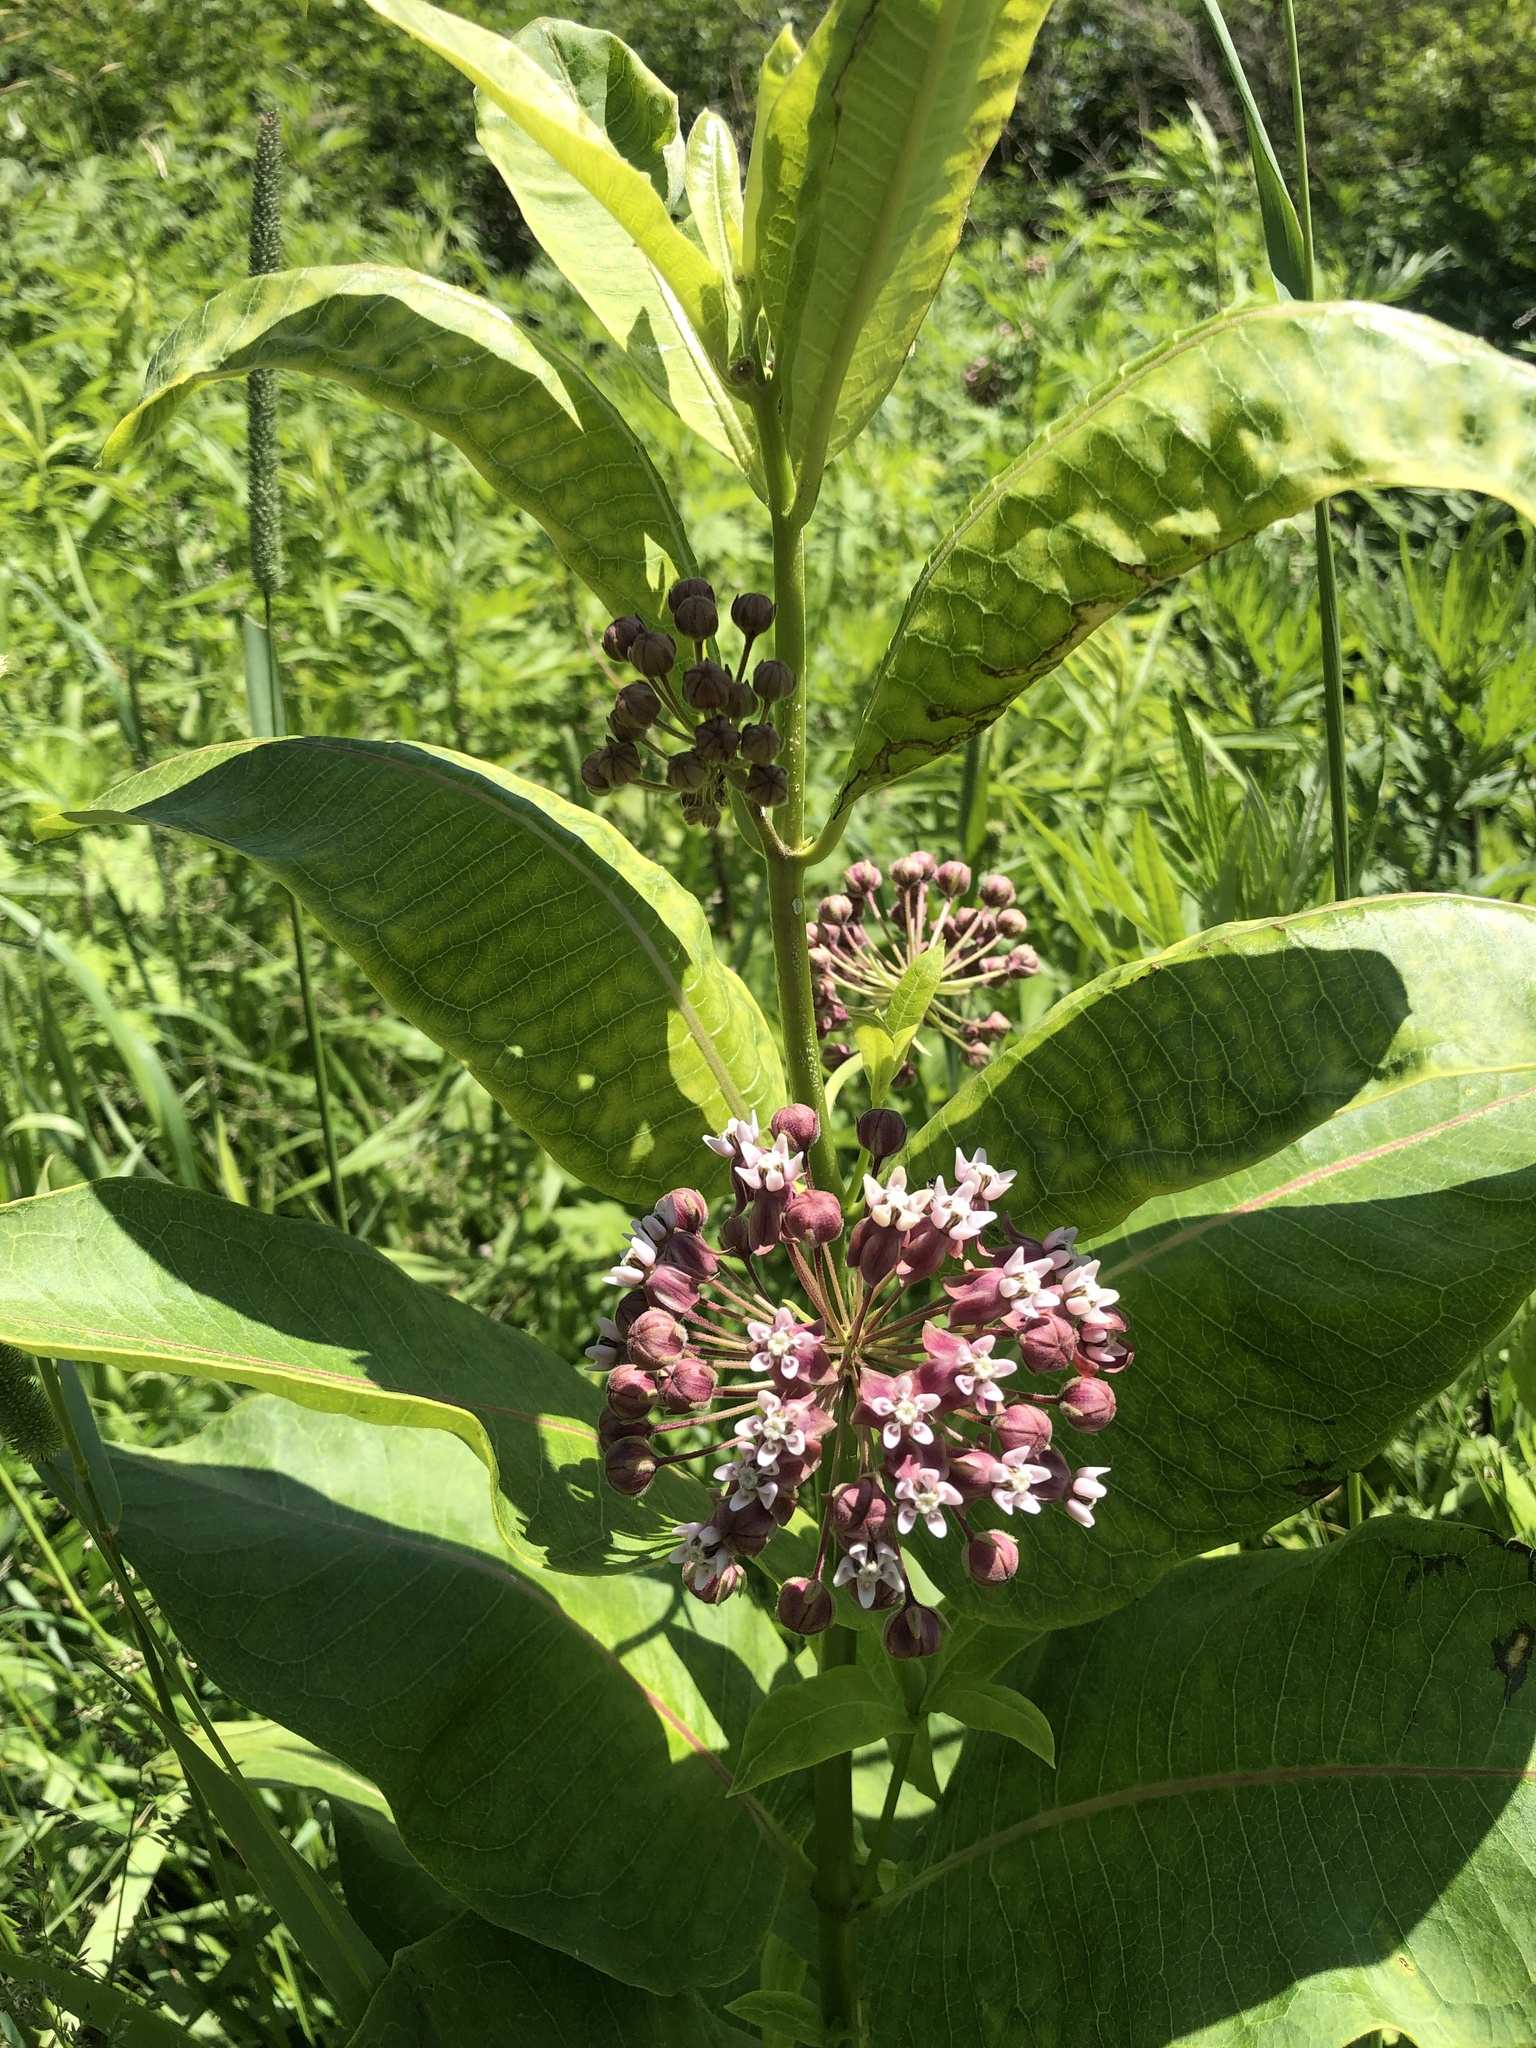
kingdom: Plantae
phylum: Tracheophyta
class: Magnoliopsida
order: Gentianales
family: Apocynaceae
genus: Asclepias
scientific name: Asclepias syriaca
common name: Common milkweed
